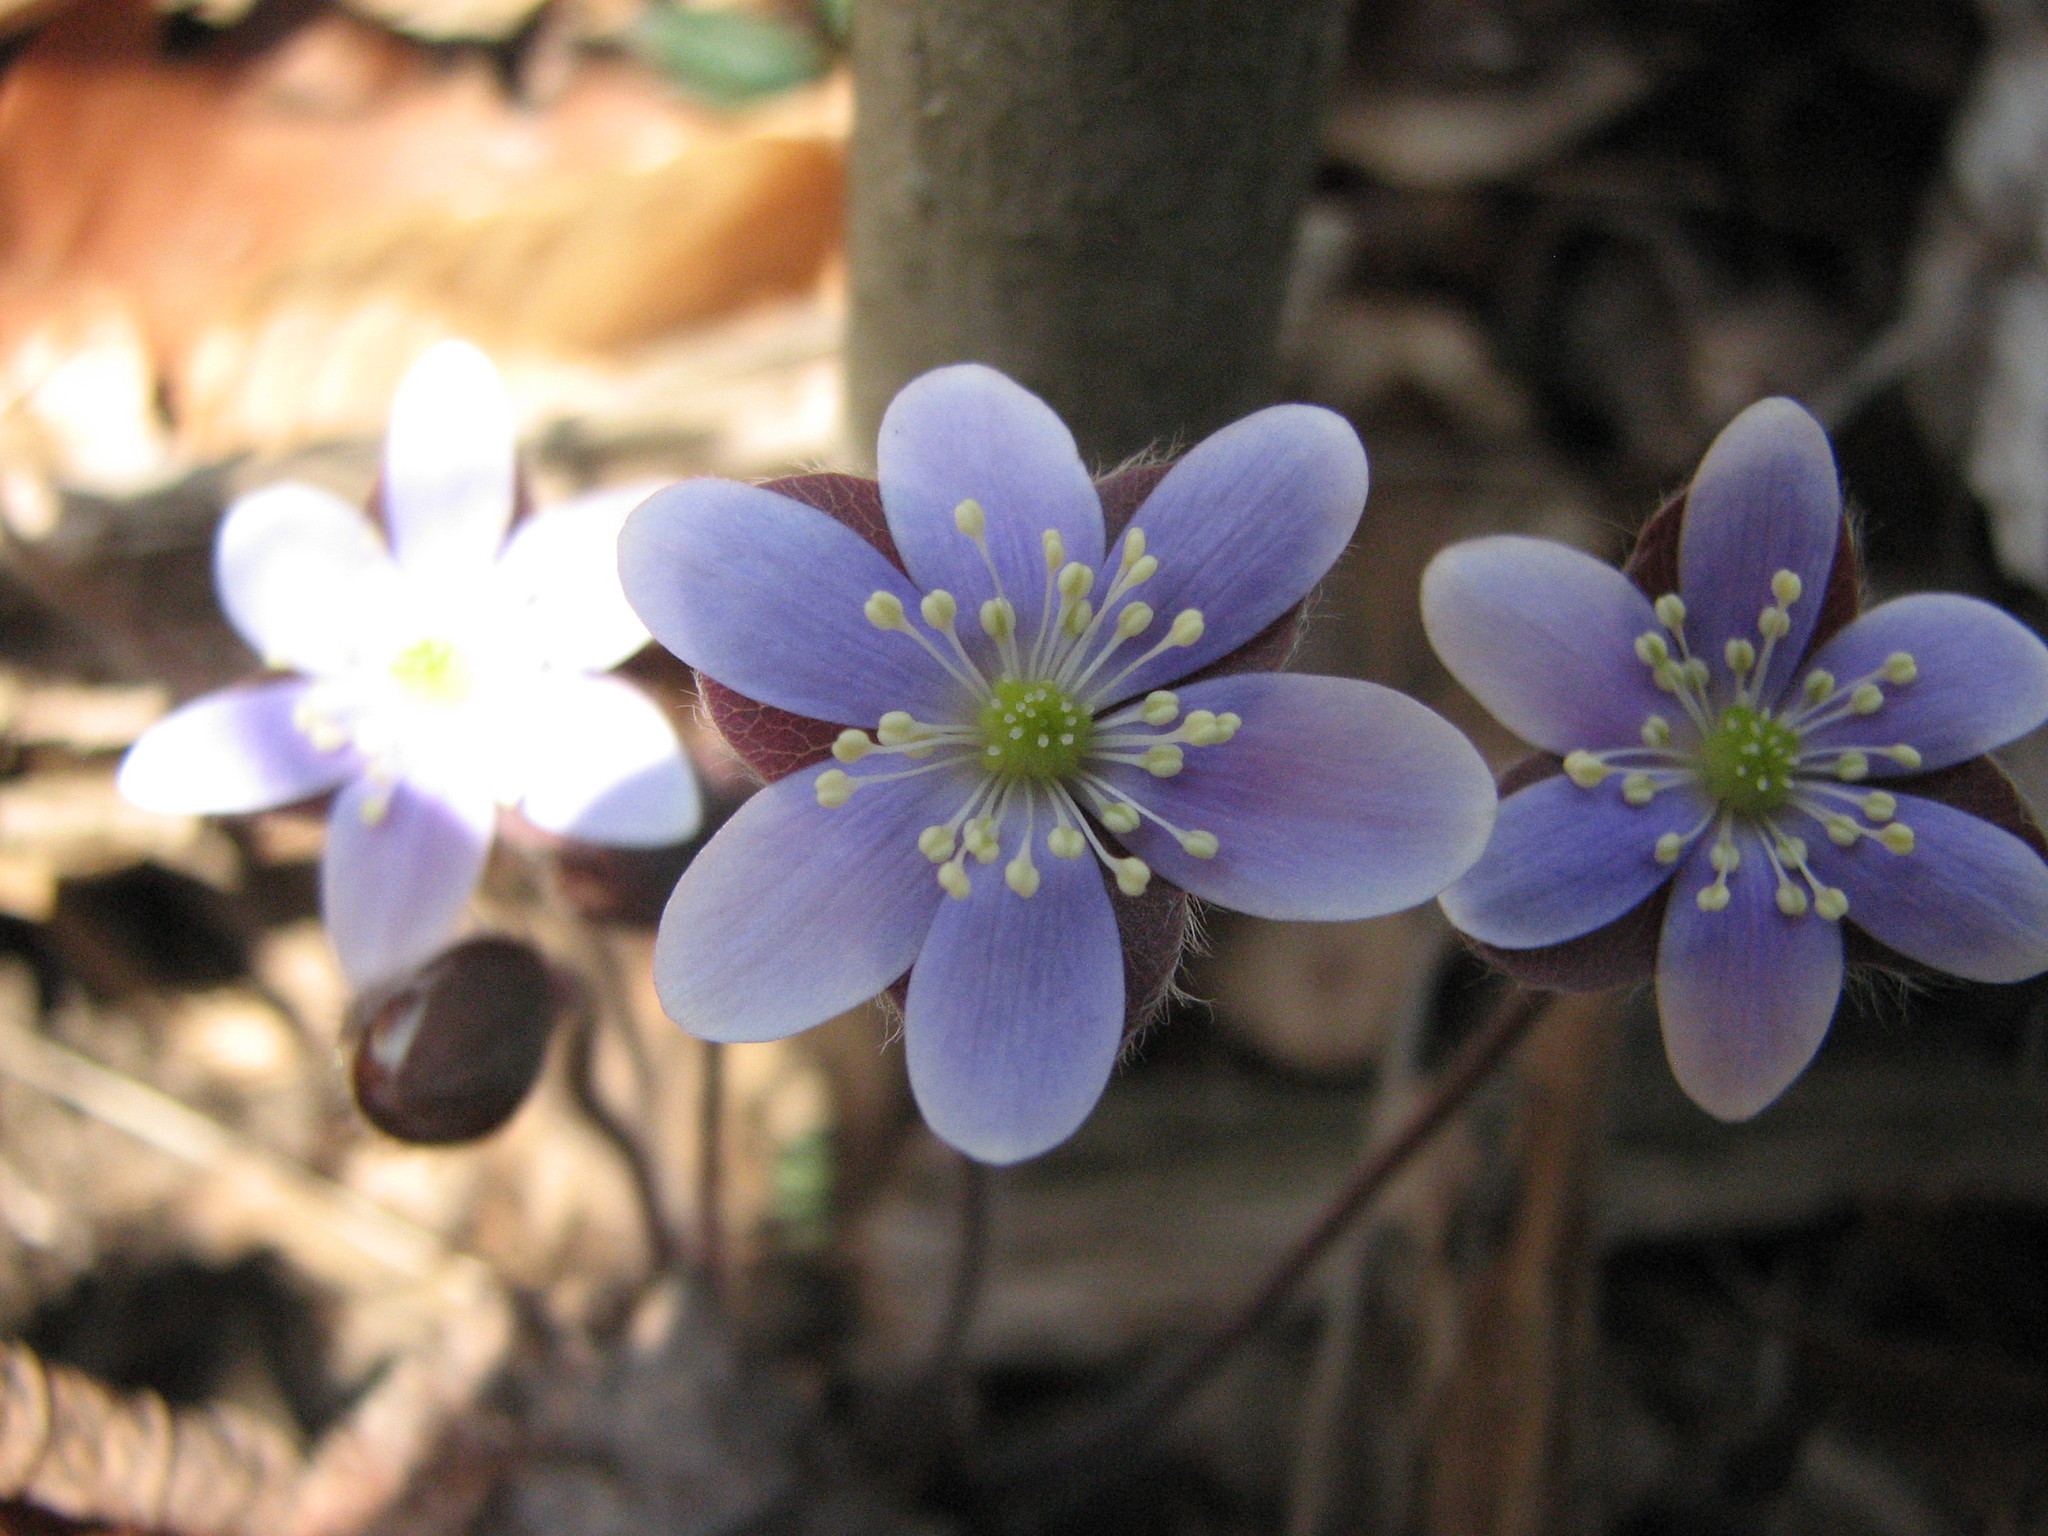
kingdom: Plantae
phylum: Tracheophyta
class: Magnoliopsida
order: Ranunculales
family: Ranunculaceae
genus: Hepatica
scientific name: Hepatica americana
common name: American hepatica
